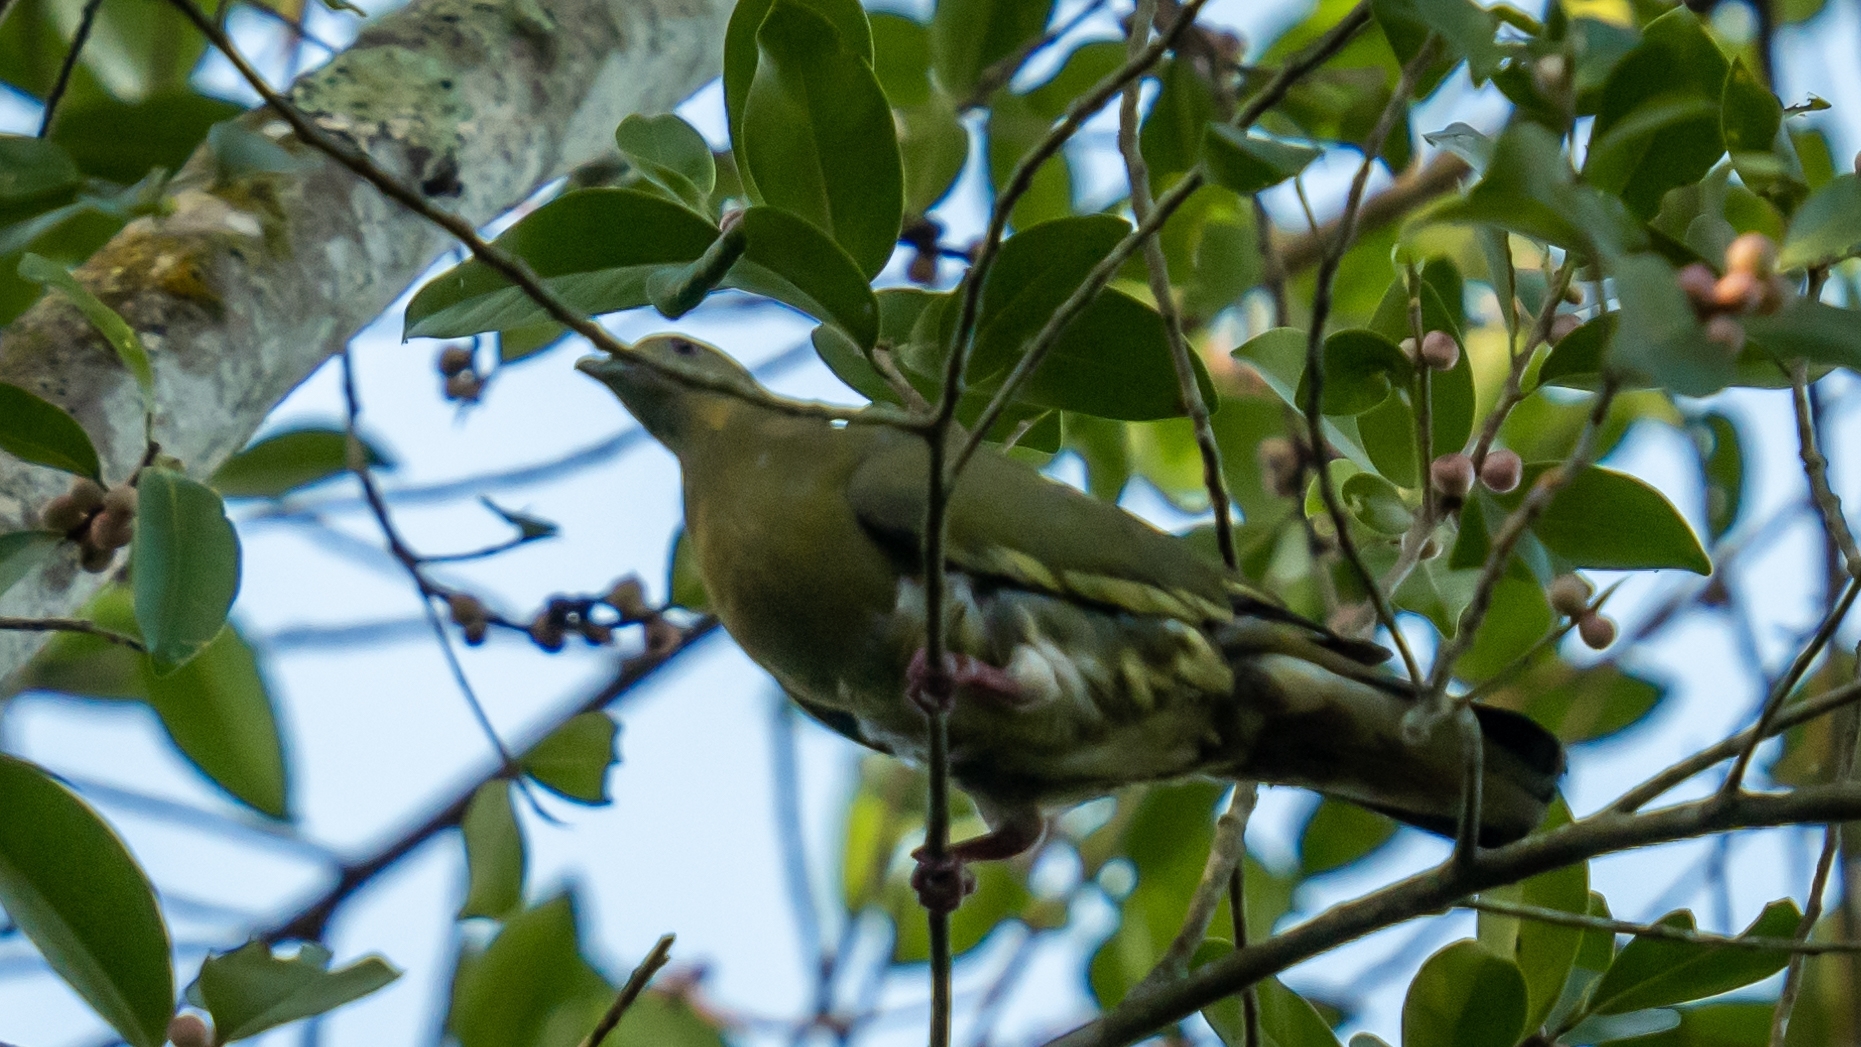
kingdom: Animalia
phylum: Chordata
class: Aves
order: Columbiformes
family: Columbidae
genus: Treron
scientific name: Treron vernans
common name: Pink-necked green pigeon
